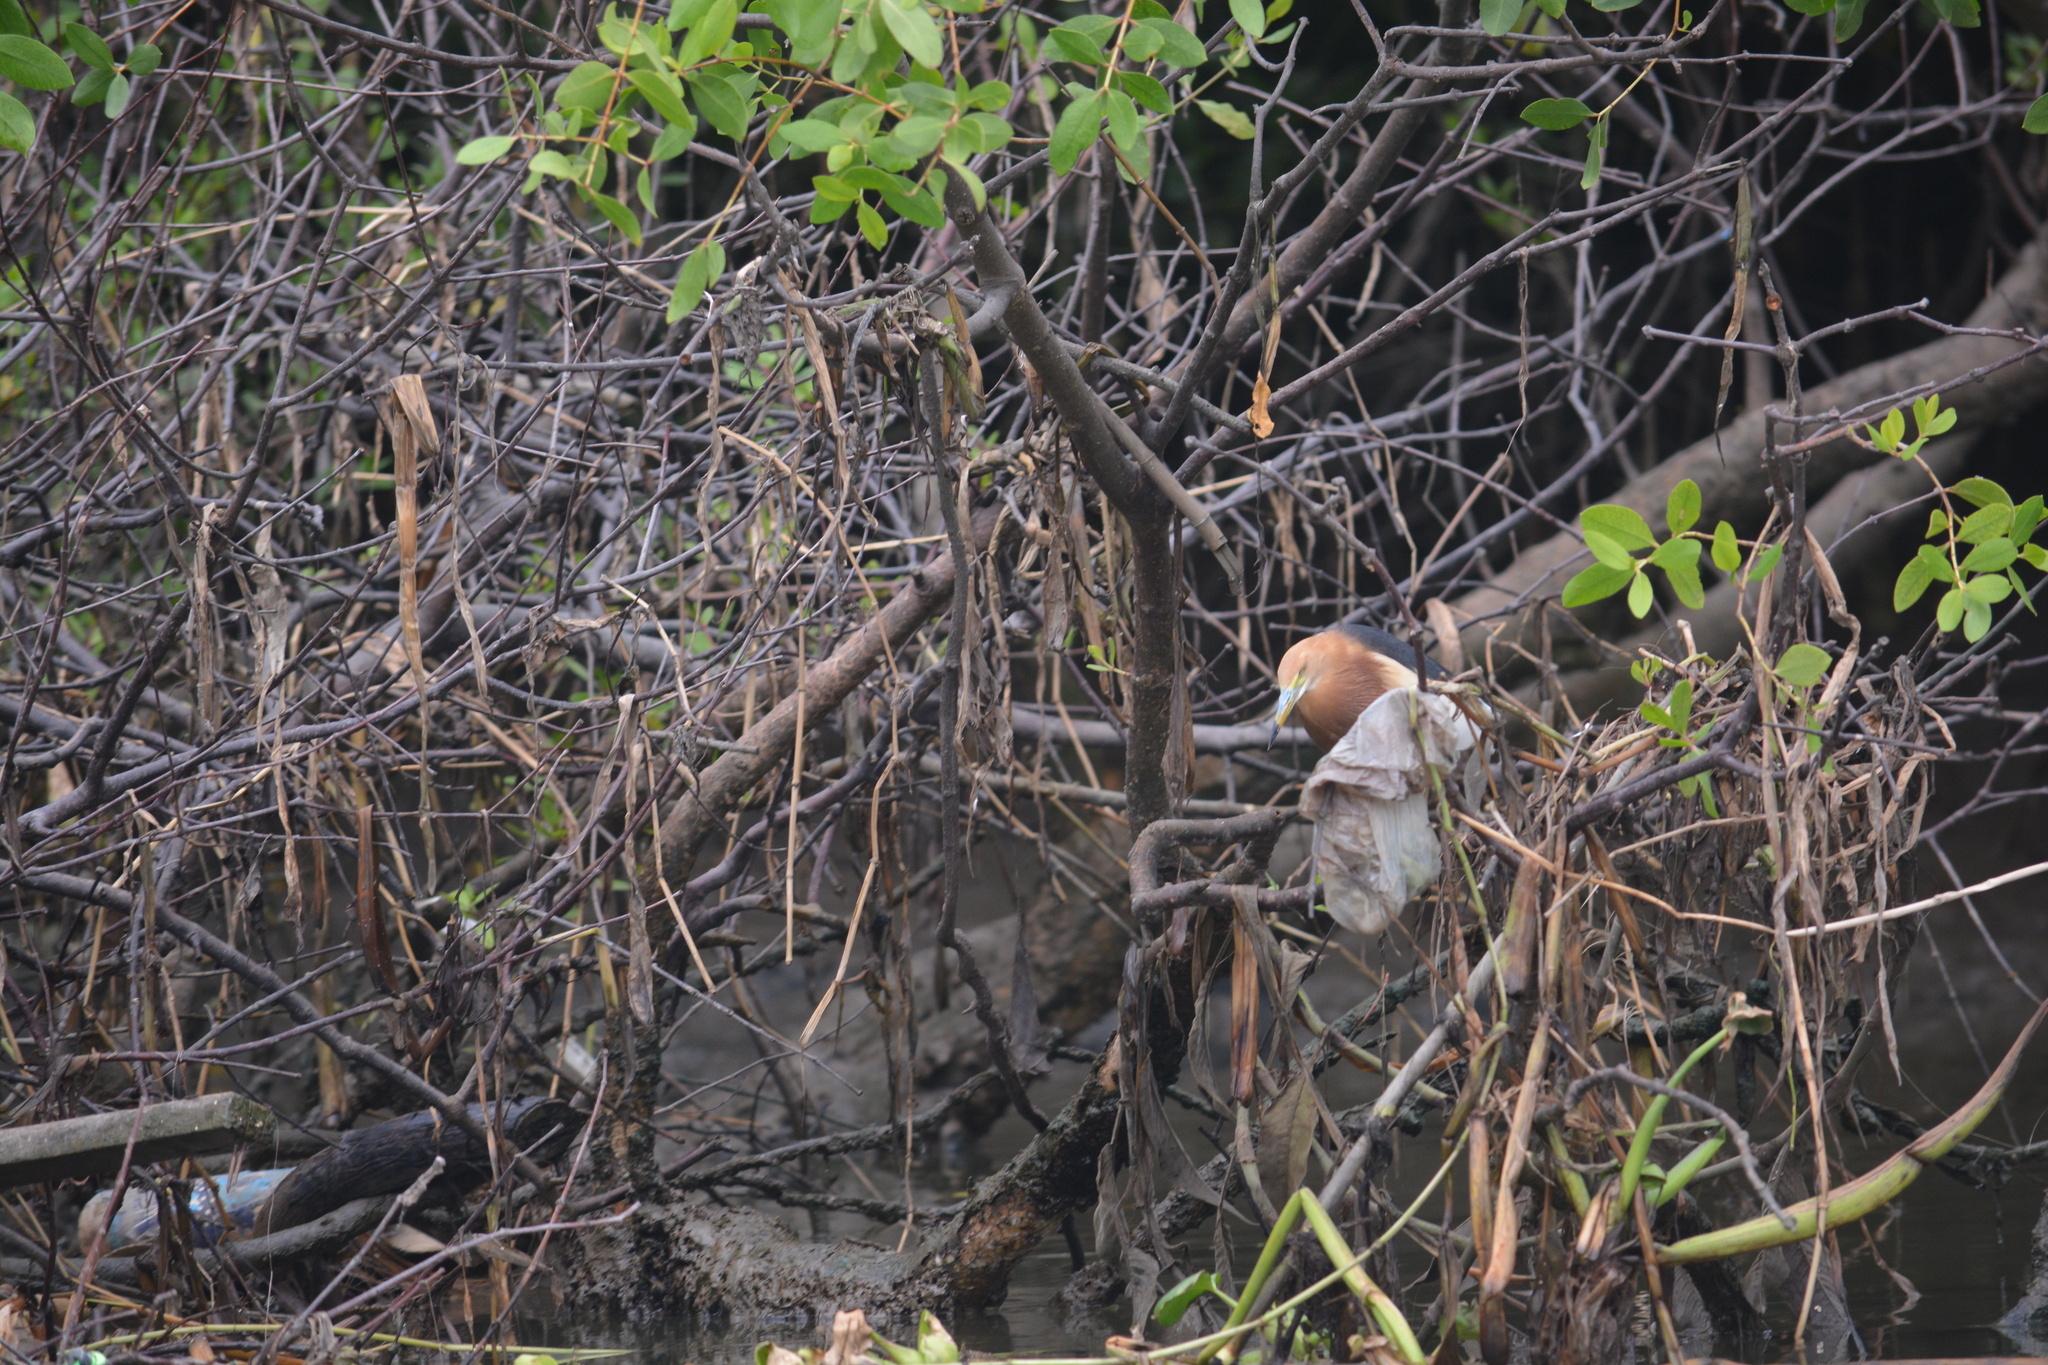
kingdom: Animalia
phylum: Chordata
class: Aves
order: Pelecaniformes
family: Ardeidae
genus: Ardeola
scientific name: Ardeola speciosa
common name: Javan pond heron
